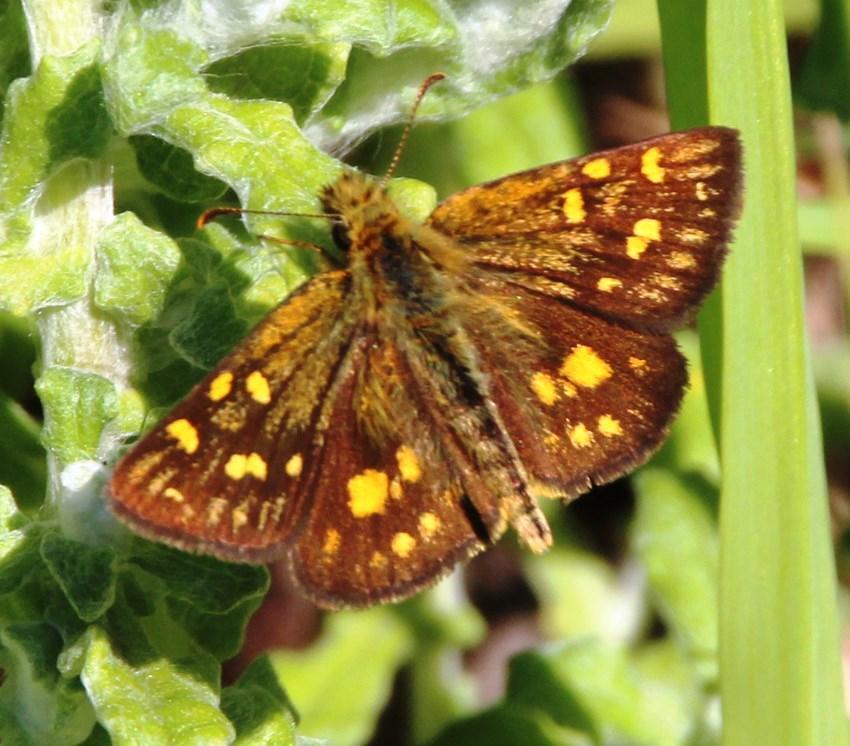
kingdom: Animalia
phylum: Arthropoda
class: Insecta
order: Lepidoptera
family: Hesperiidae
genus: Metisella
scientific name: Metisella malgacha
